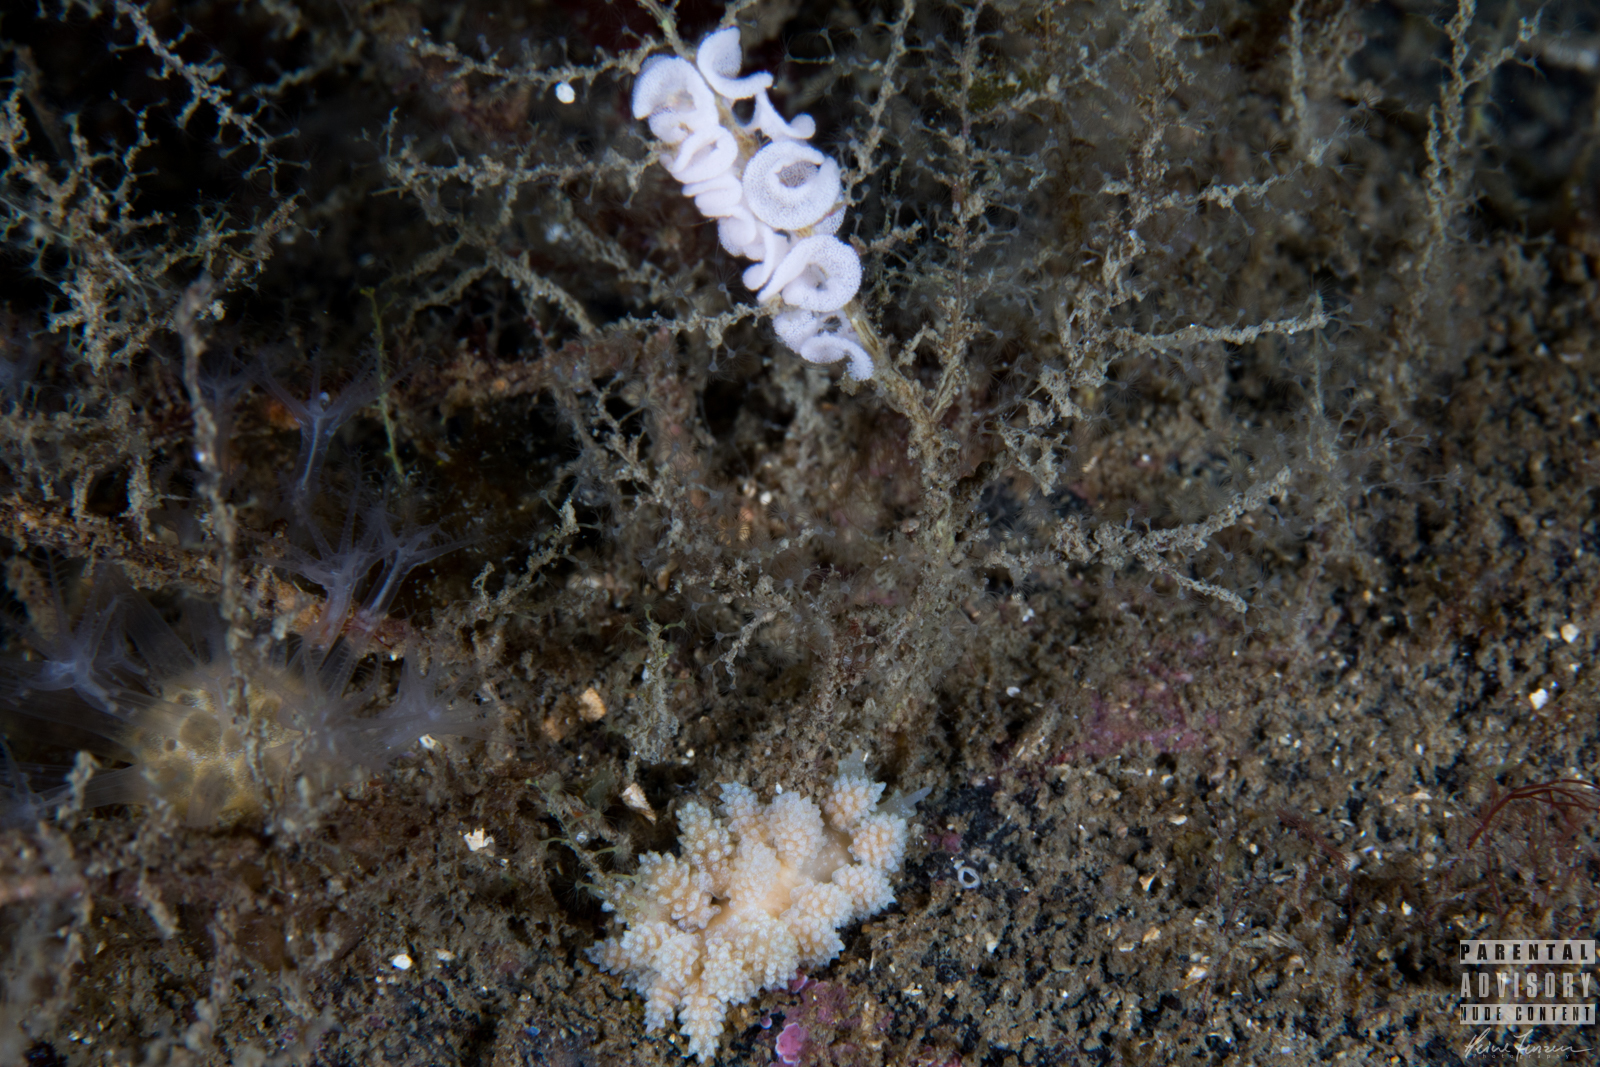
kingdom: Animalia
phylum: Mollusca
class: Gastropoda
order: Nudibranchia
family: Dotidae
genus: Doto
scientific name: Doto fragilis
